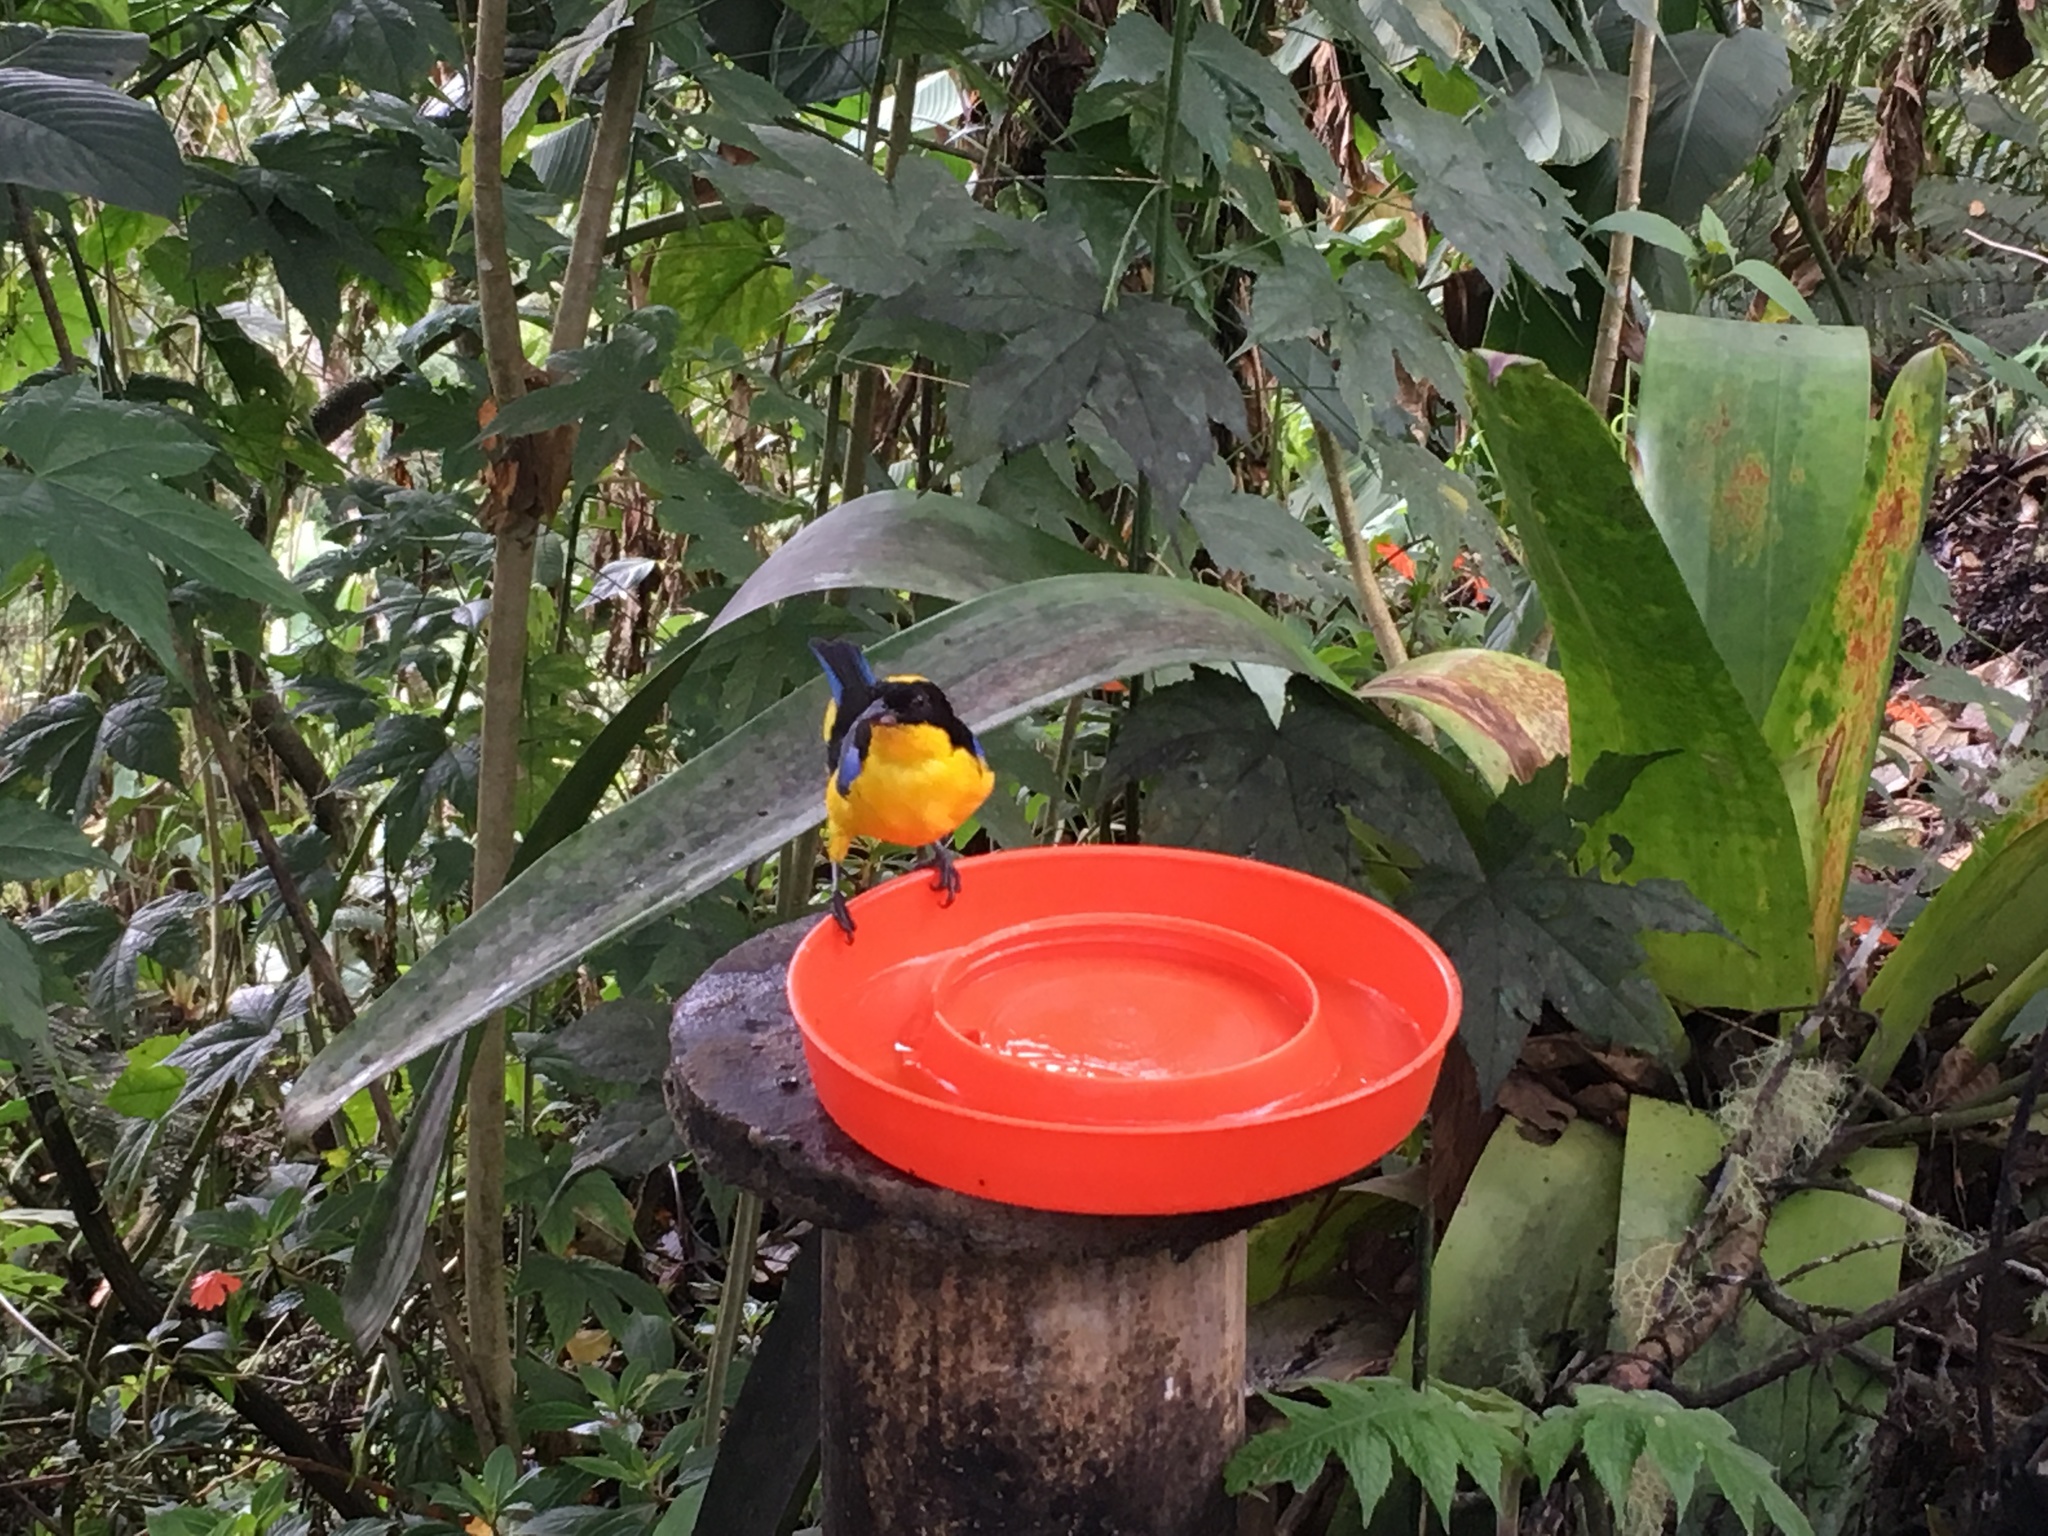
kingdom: Animalia
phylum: Chordata
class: Aves
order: Passeriformes
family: Thraupidae
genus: Anisognathus
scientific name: Anisognathus somptuosus
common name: Blue-winged mountain-tanager
